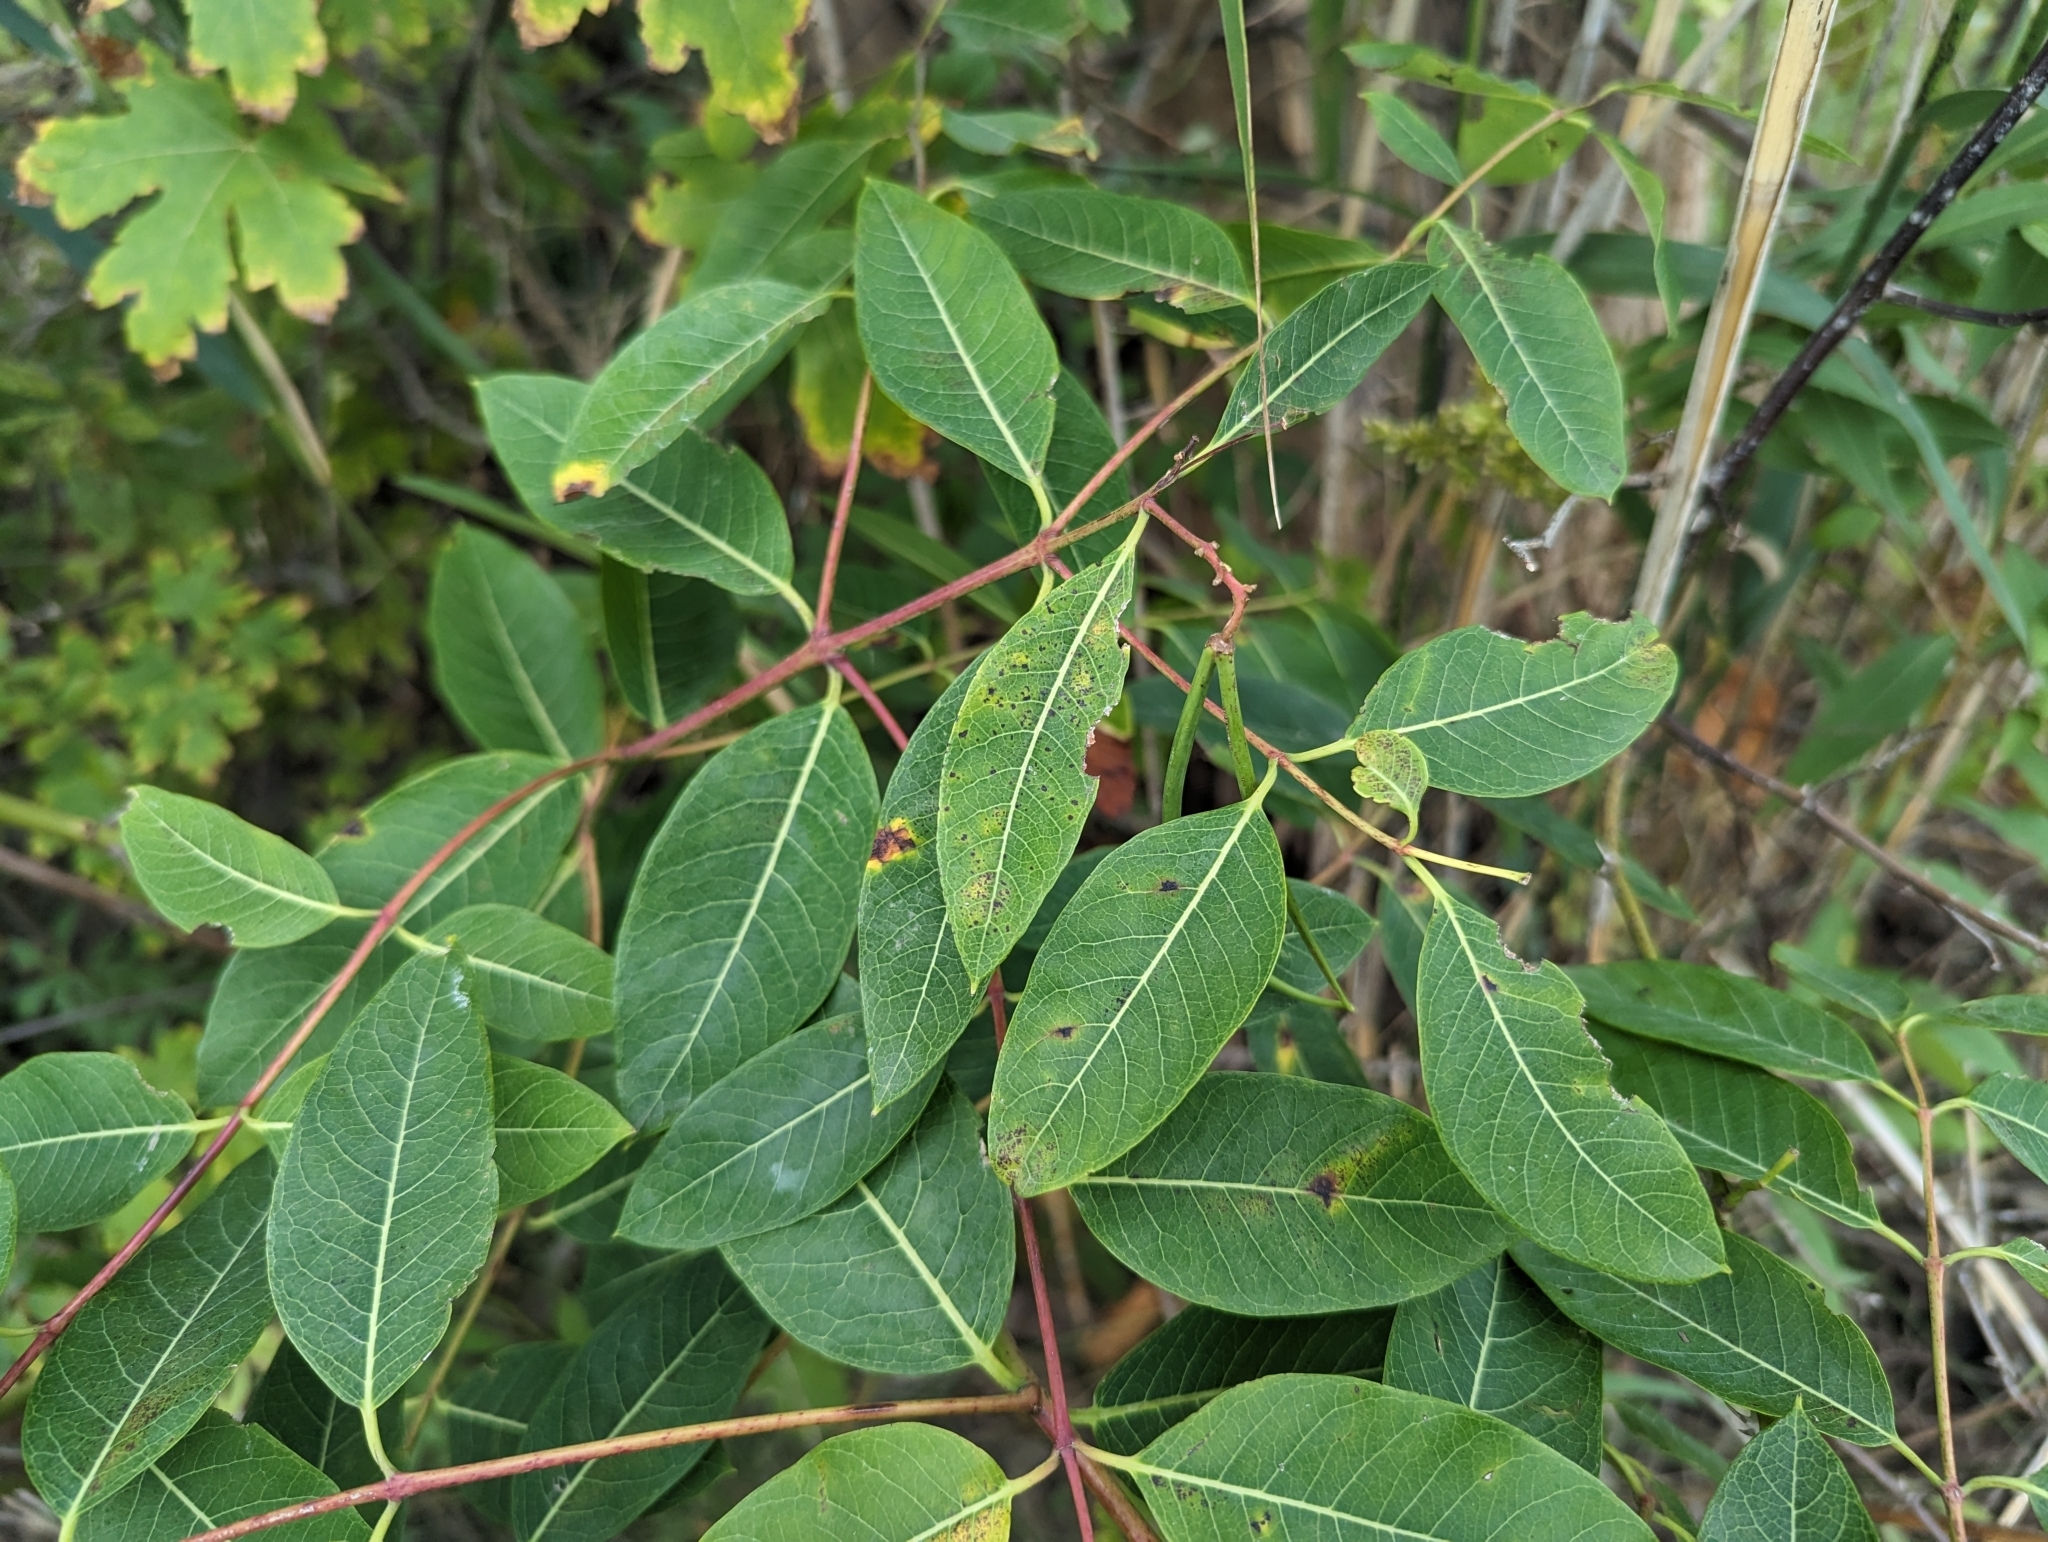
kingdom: Plantae
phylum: Tracheophyta
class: Magnoliopsida
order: Gentianales
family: Apocynaceae
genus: Apocynum
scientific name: Apocynum cannabinum
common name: Hemp dogbane
